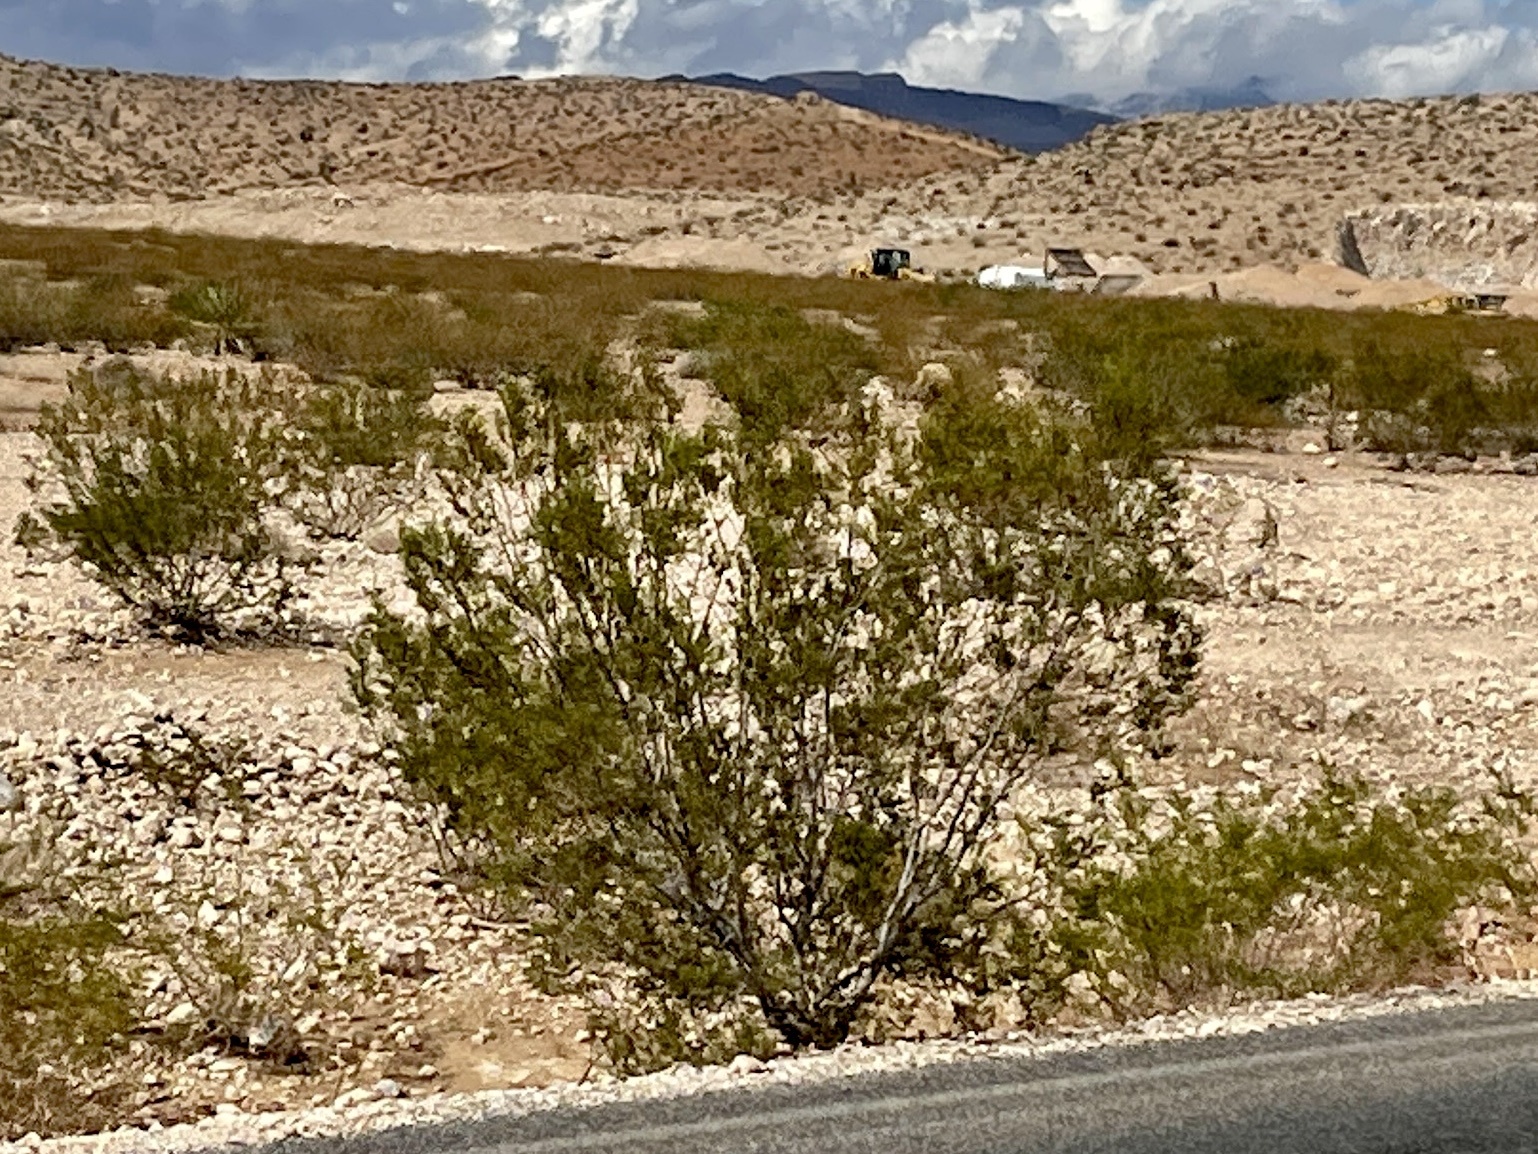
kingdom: Plantae
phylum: Tracheophyta
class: Magnoliopsida
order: Zygophyllales
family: Zygophyllaceae
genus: Larrea
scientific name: Larrea tridentata
